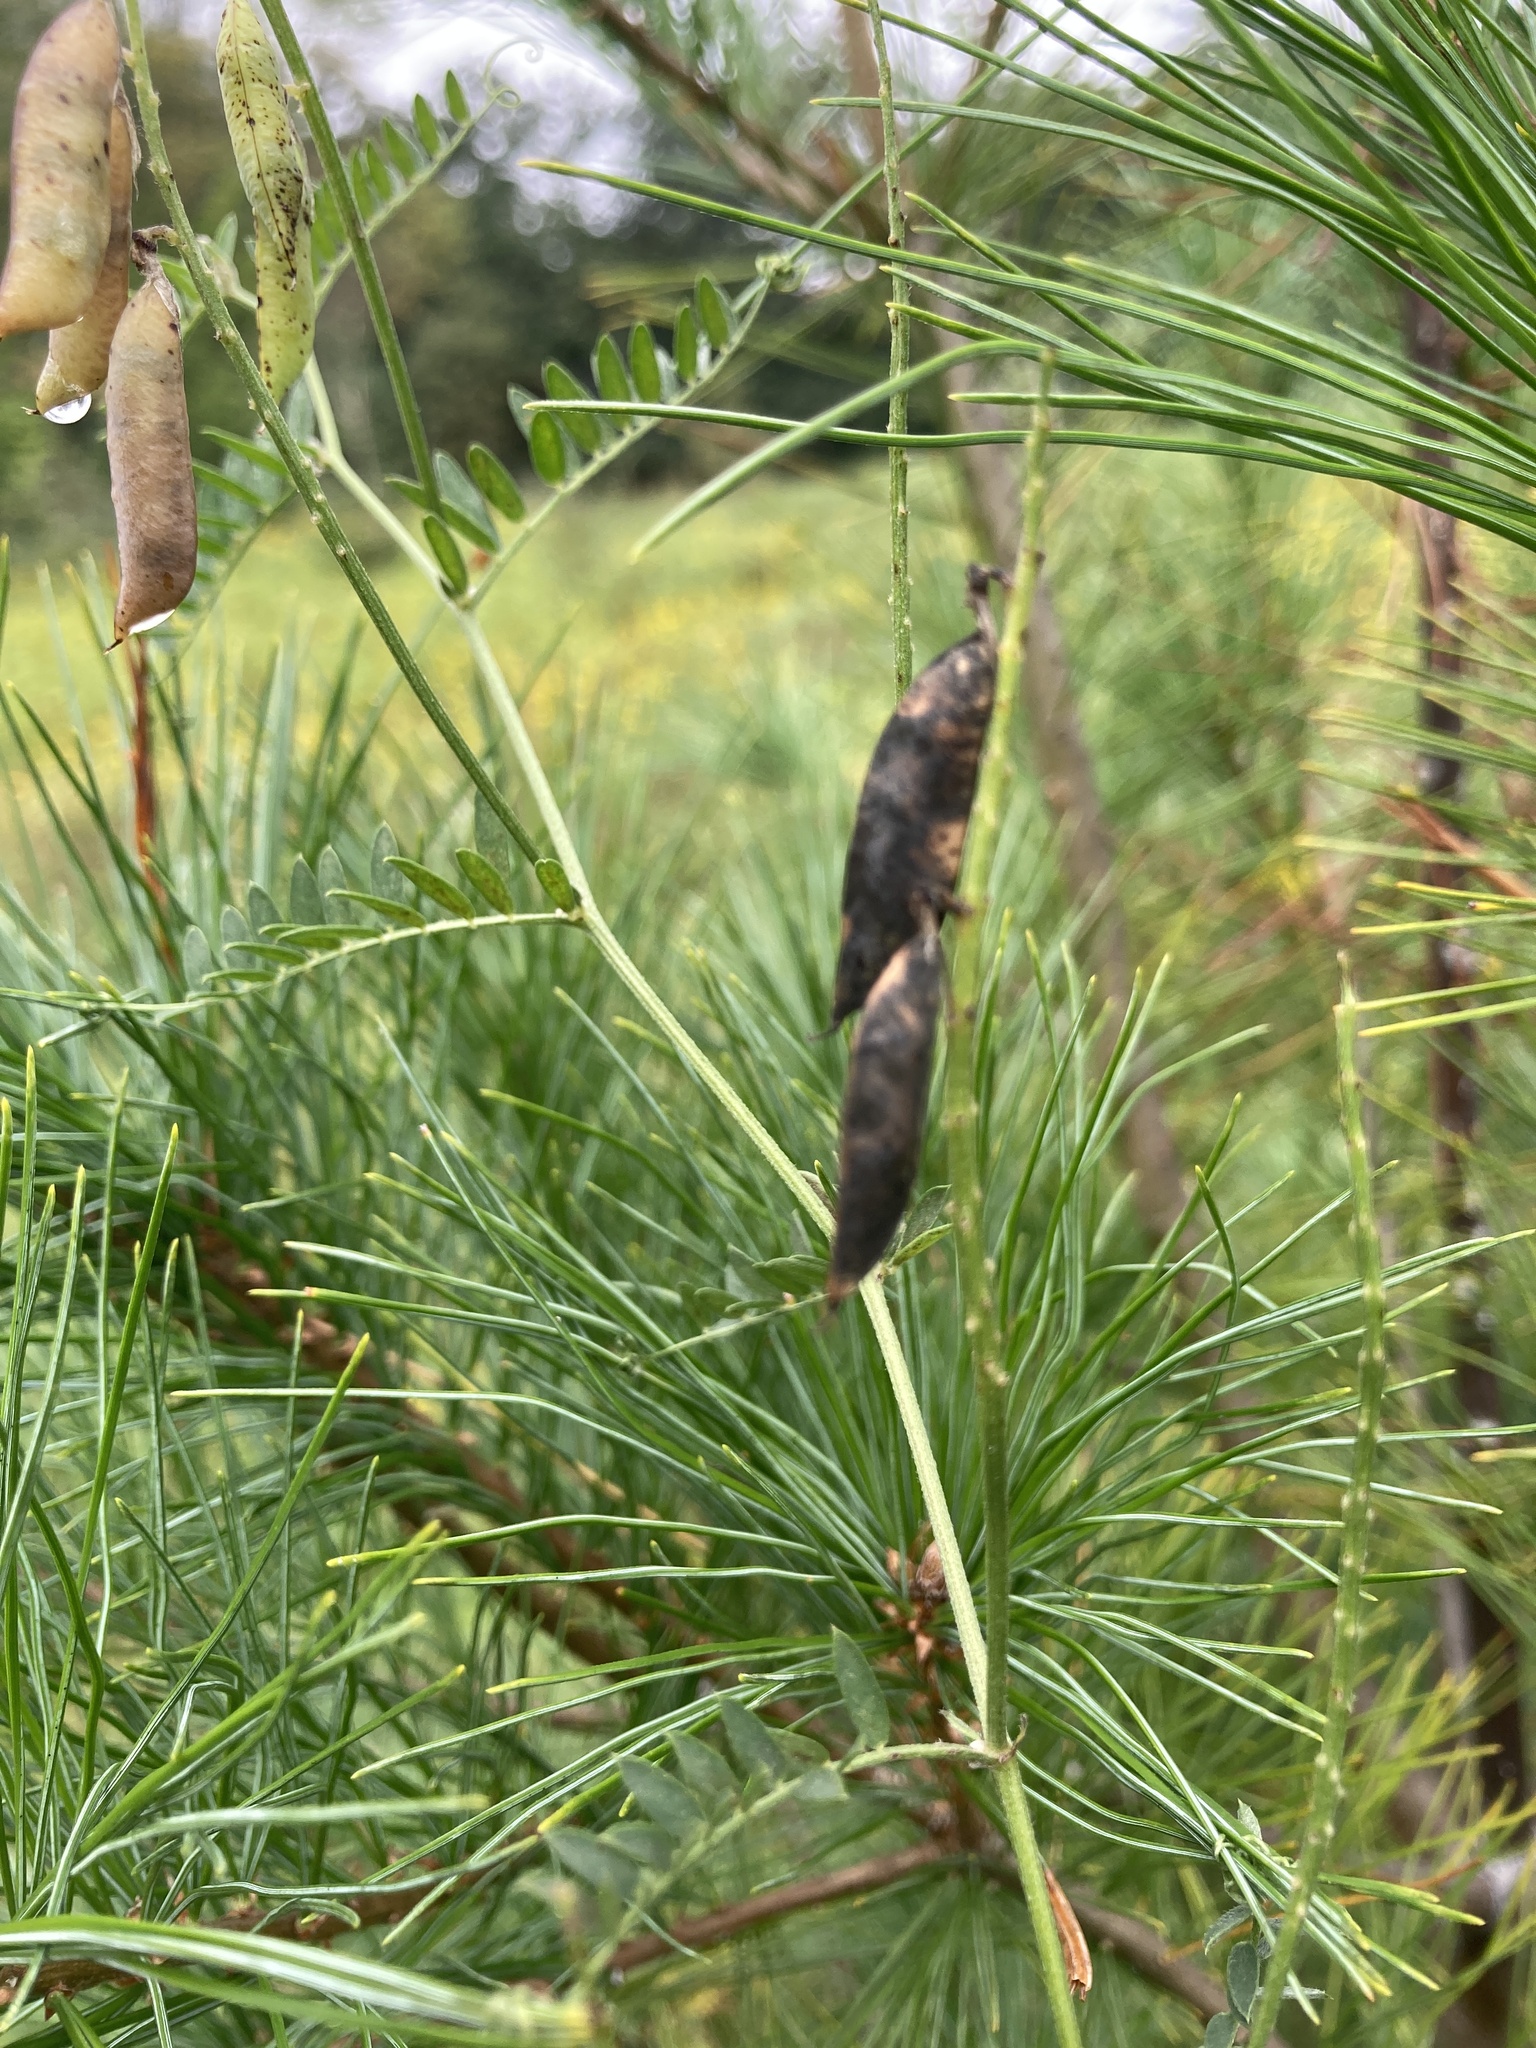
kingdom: Plantae
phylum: Tracheophyta
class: Magnoliopsida
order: Fabales
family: Fabaceae
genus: Vicia
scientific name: Vicia cracca
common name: Bird vetch
